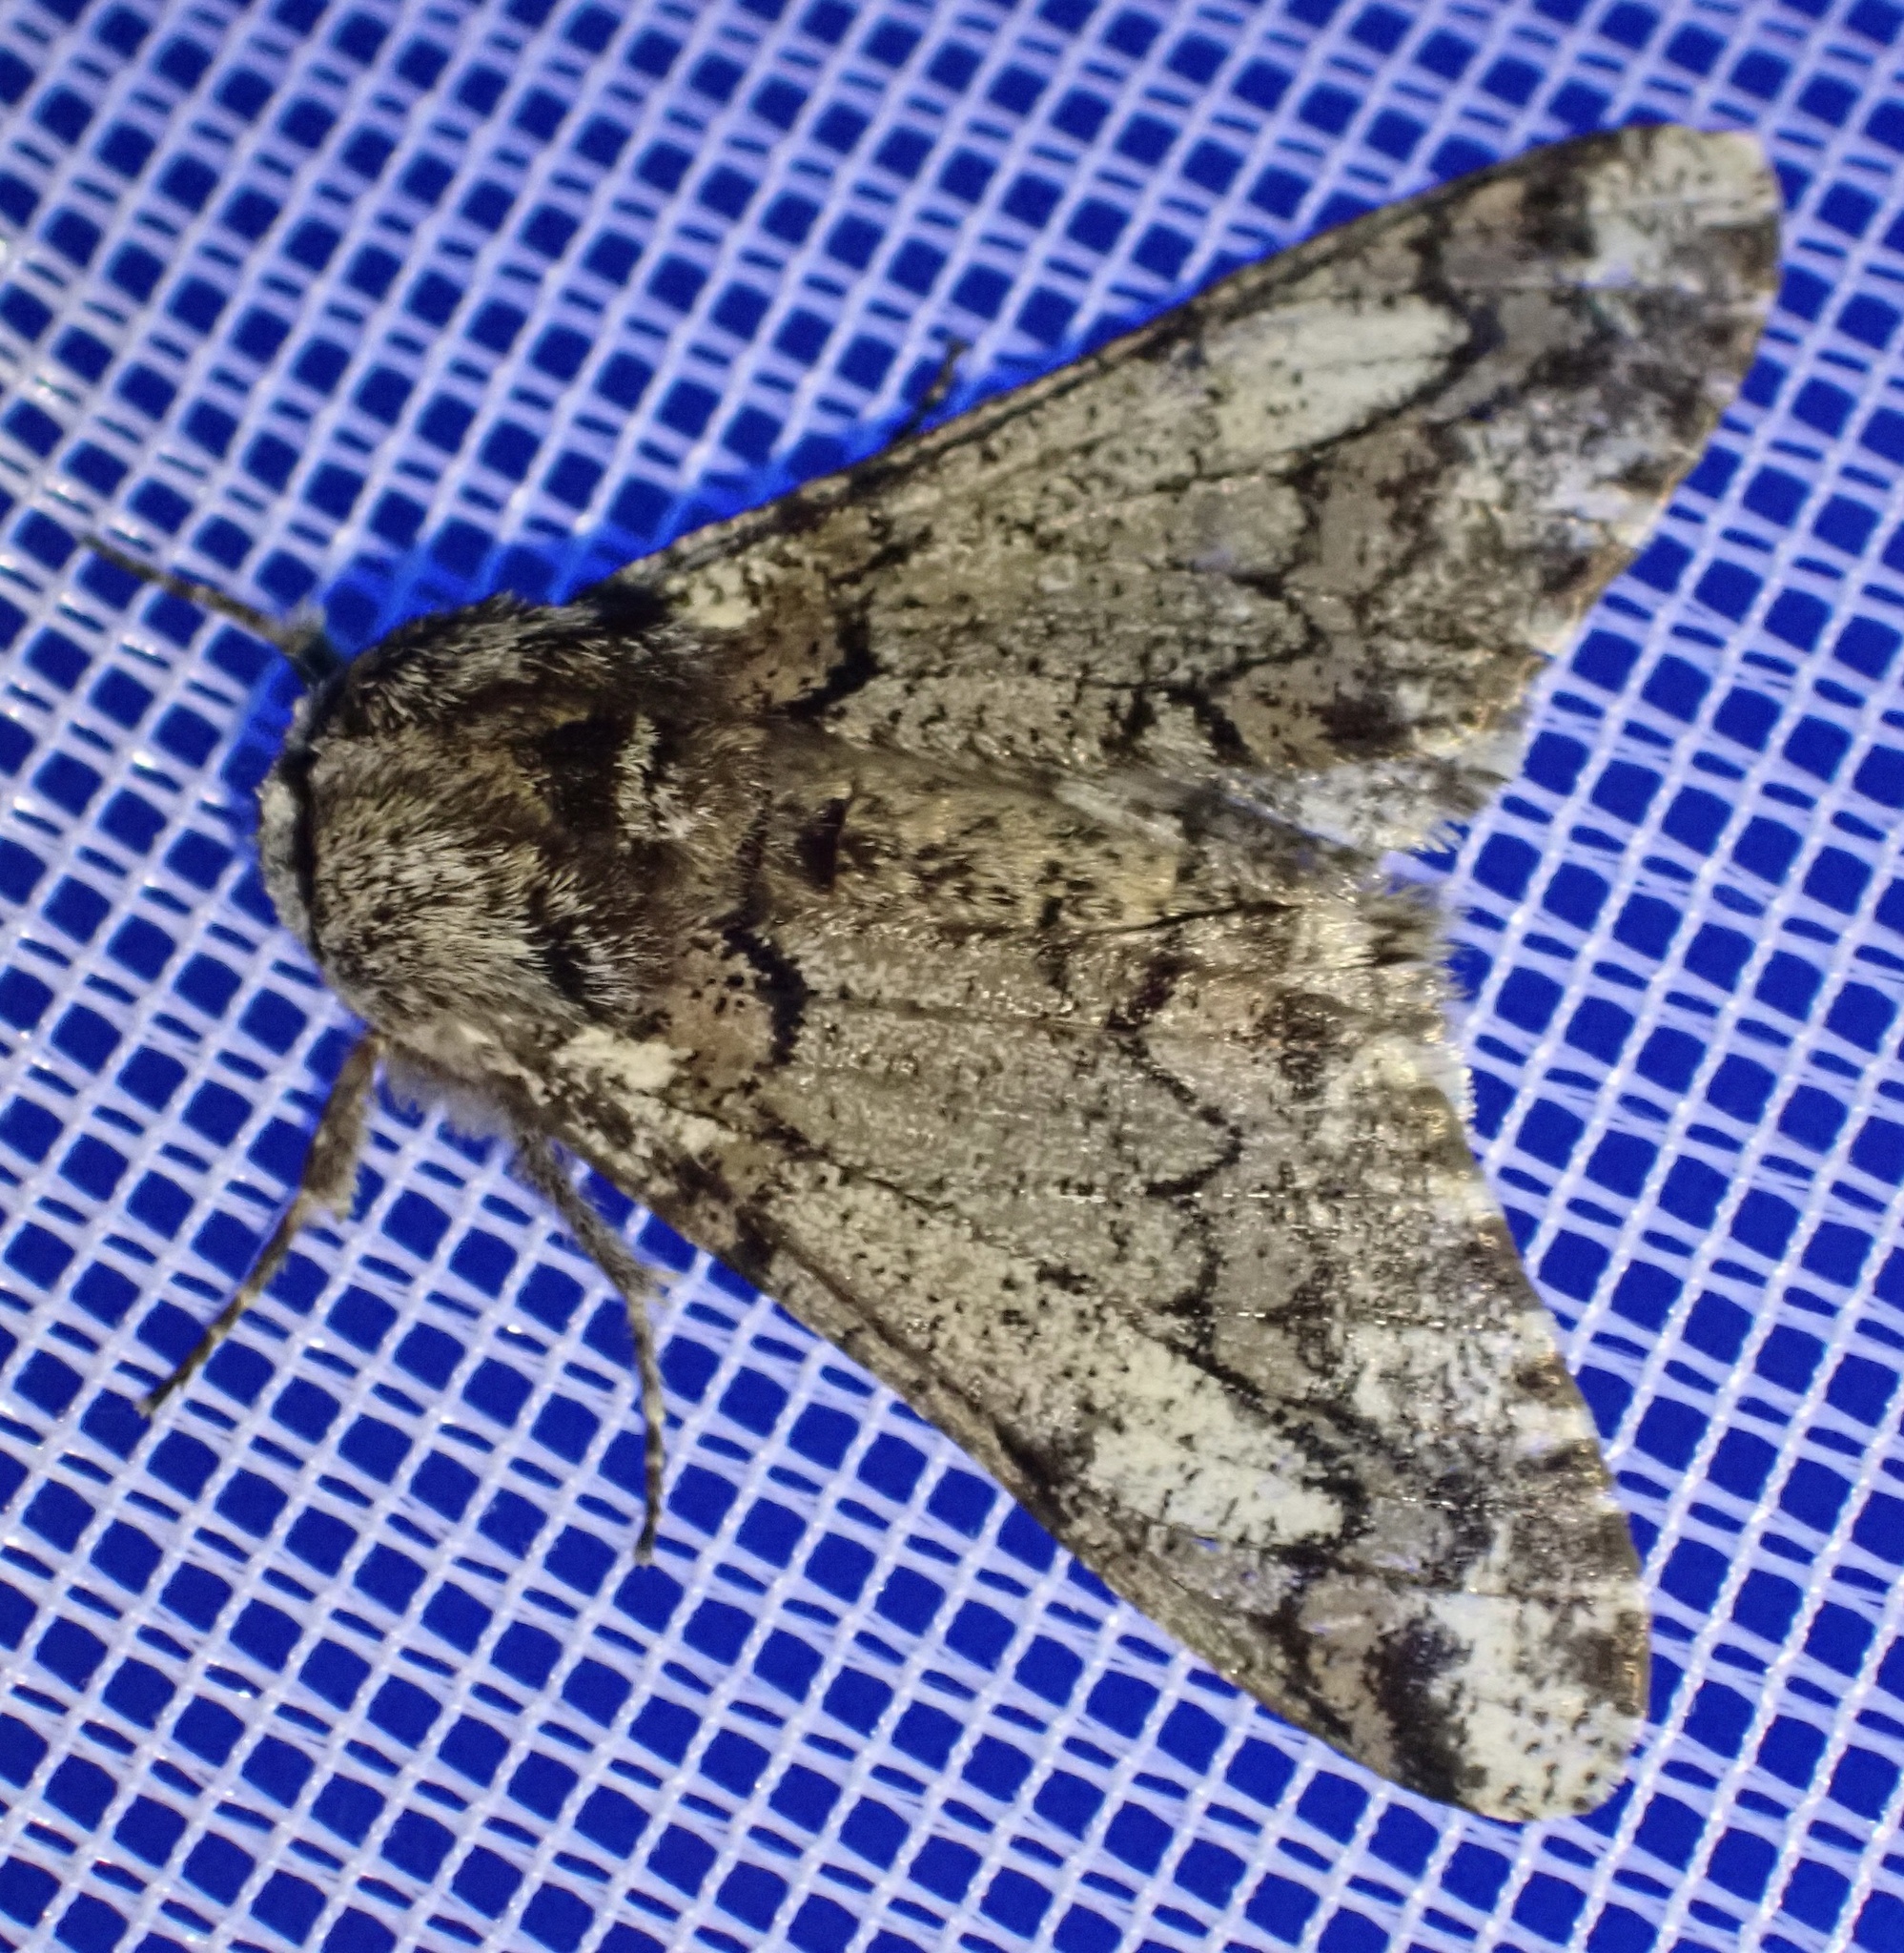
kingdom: Animalia
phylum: Arthropoda
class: Insecta
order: Lepidoptera
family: Geometridae
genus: Biston
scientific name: Biston strataria
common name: Oak beauty
